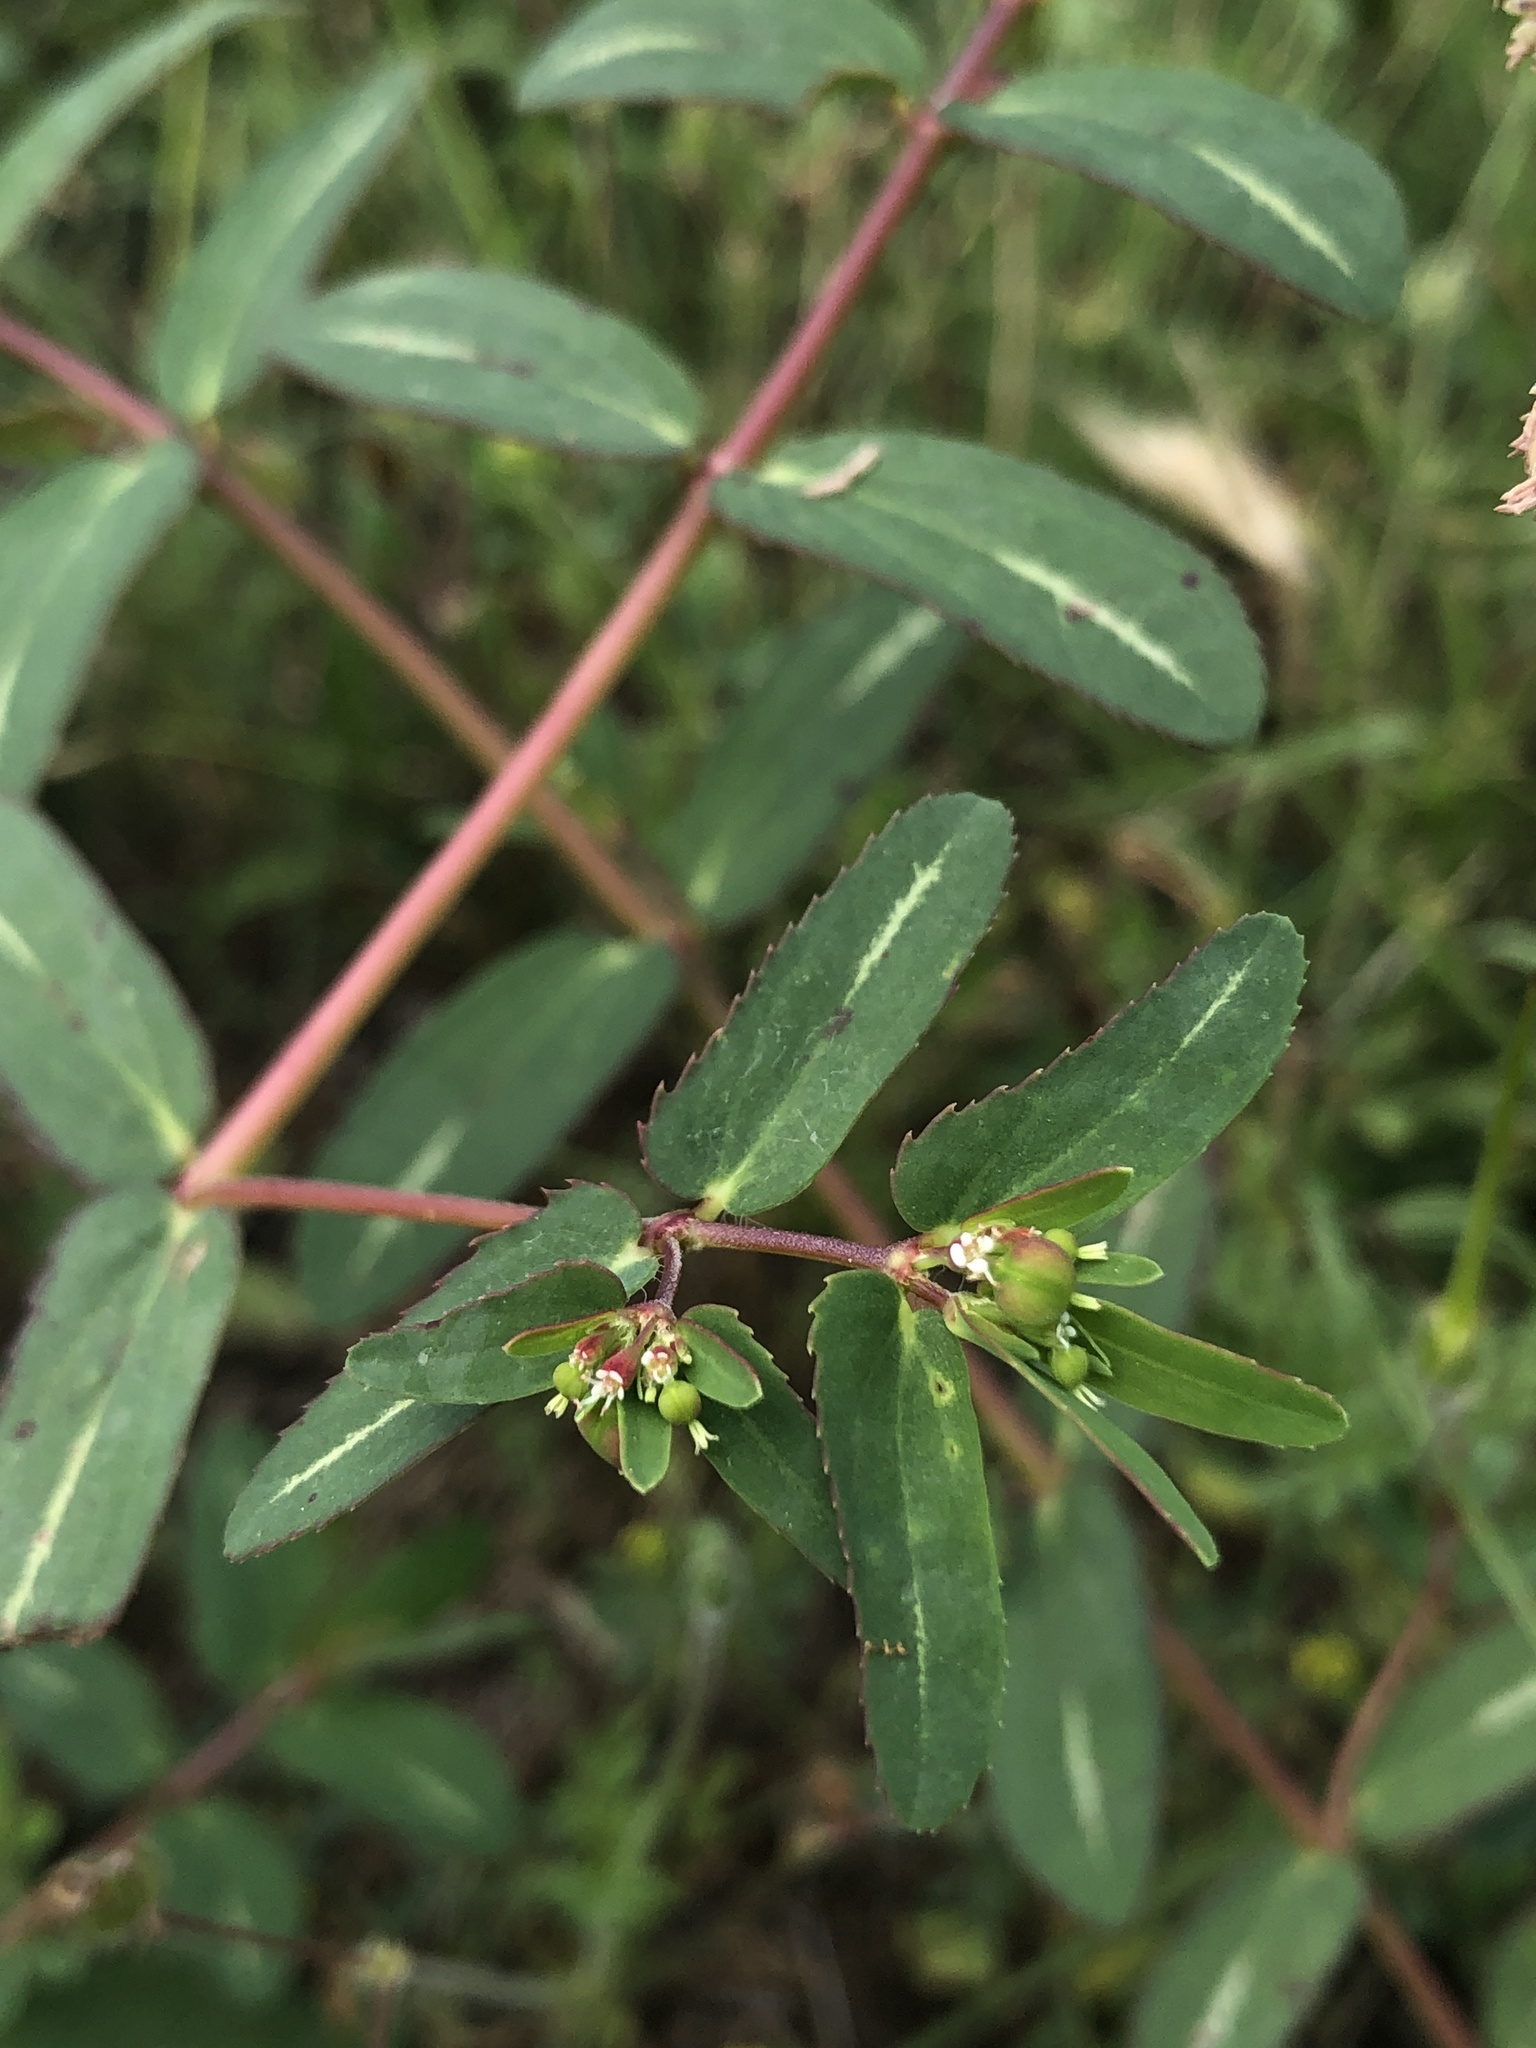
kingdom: Plantae
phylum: Tracheophyta
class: Magnoliopsida
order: Malpighiales
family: Euphorbiaceae
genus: Euphorbia
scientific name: Euphorbia nutans
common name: Eyebane
